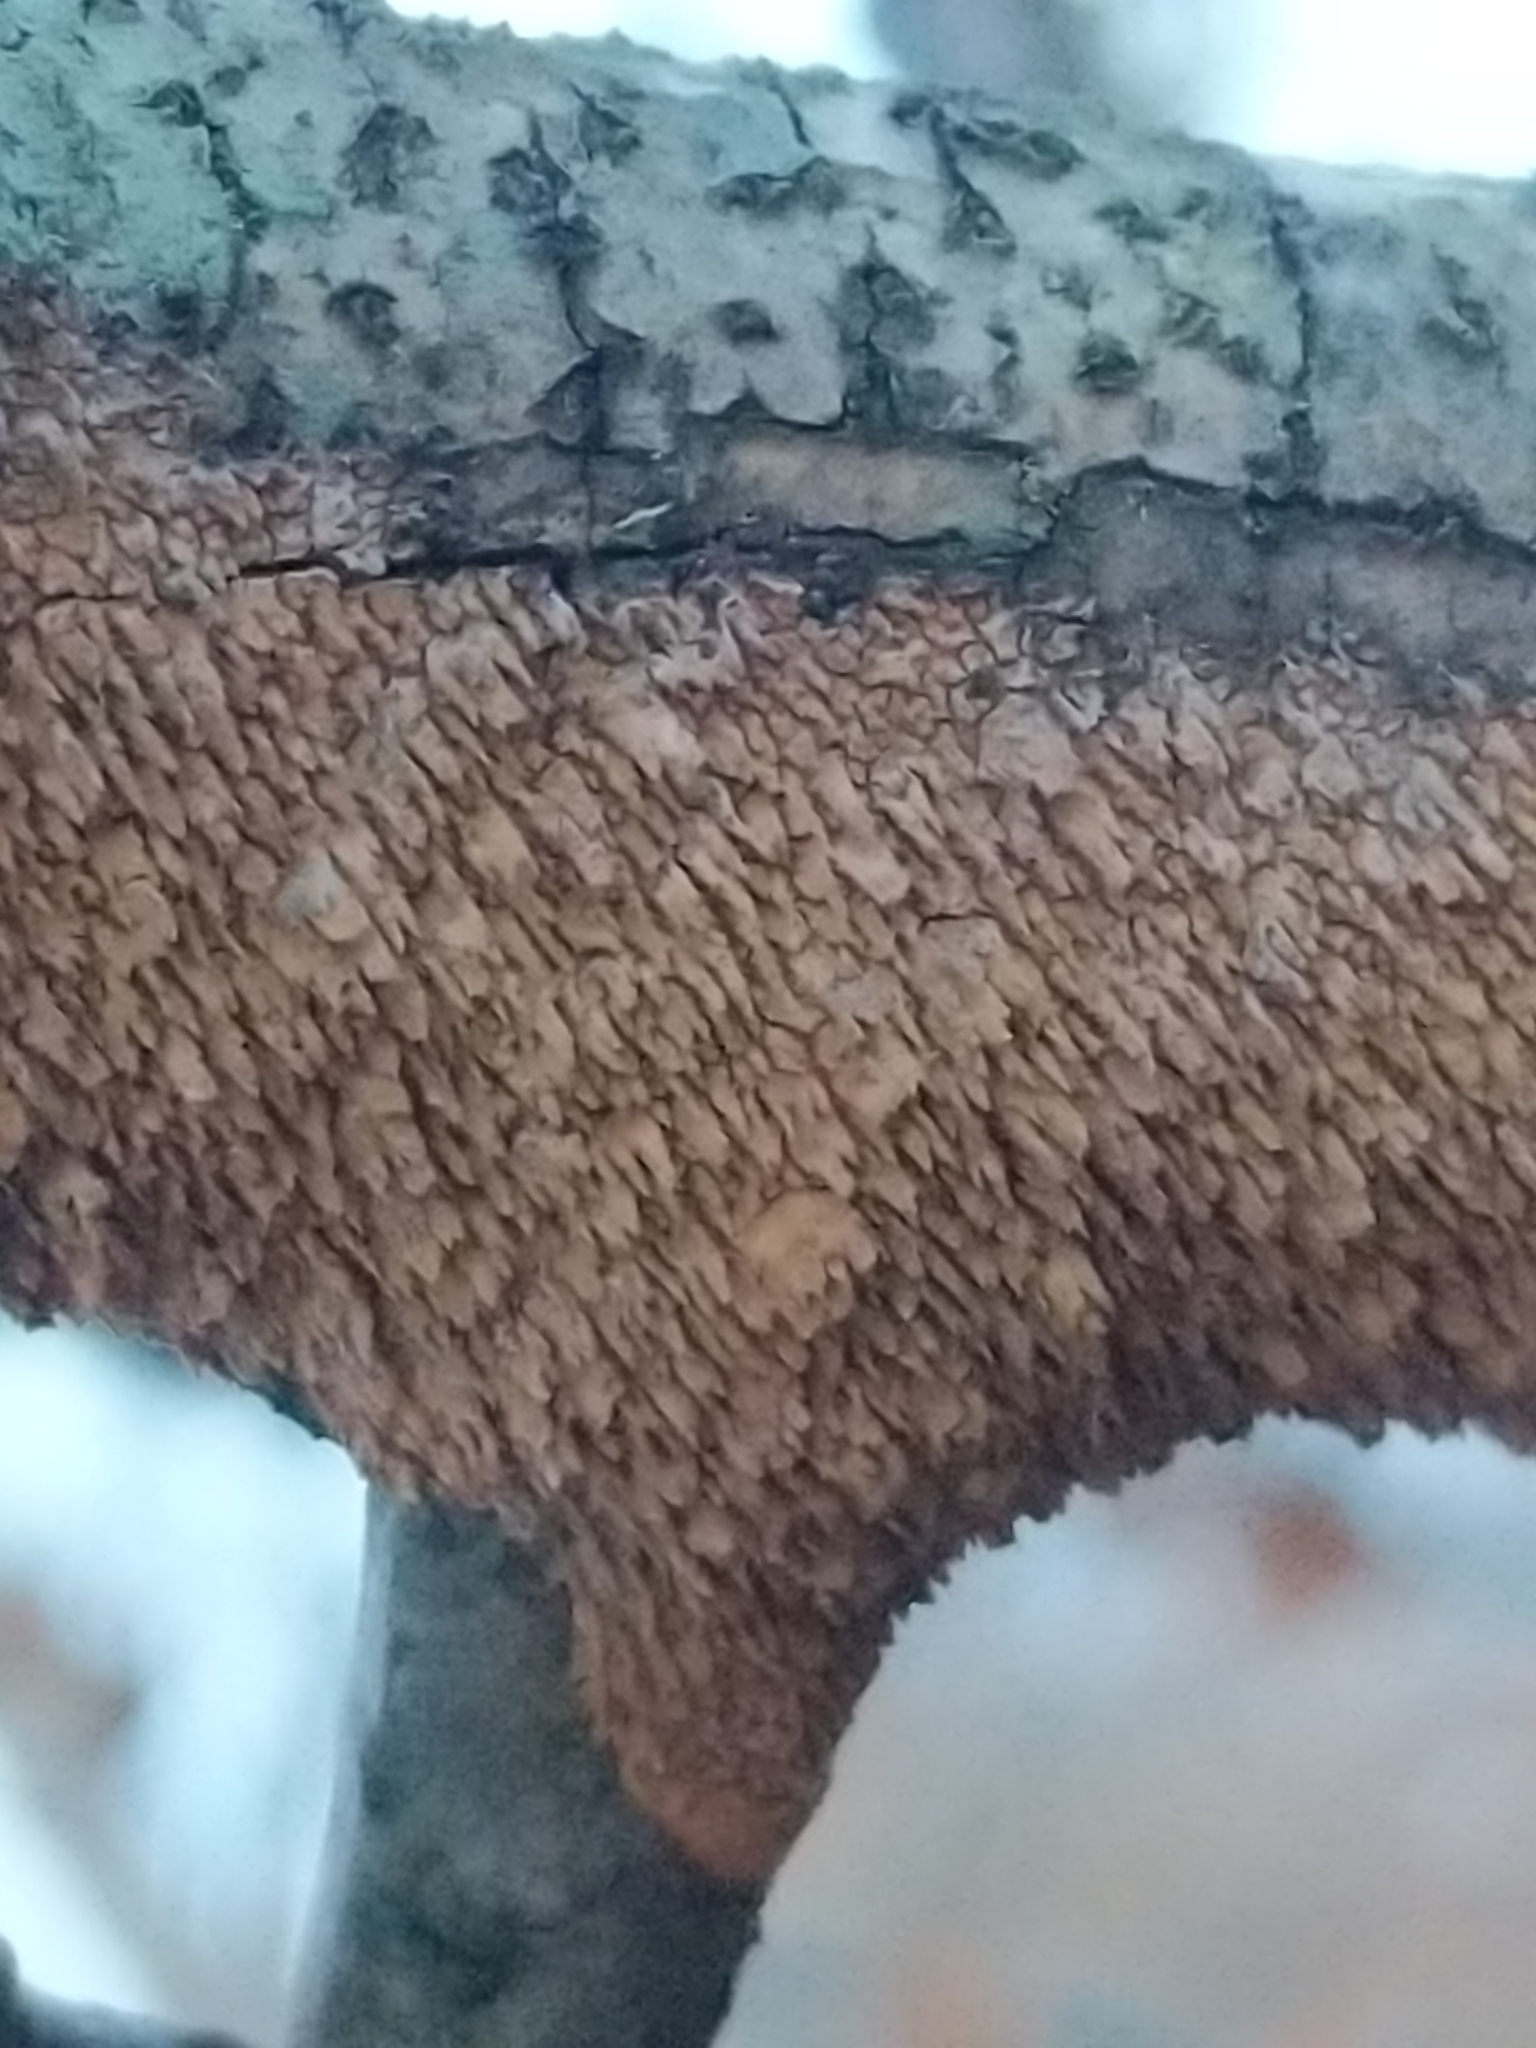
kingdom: Fungi
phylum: Basidiomycota
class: Agaricomycetes
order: Hymenochaetales
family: Hymenochaetaceae
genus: Hydnoporia
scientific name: Hydnoporia olivacea
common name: Brown-toothed crust fungus
